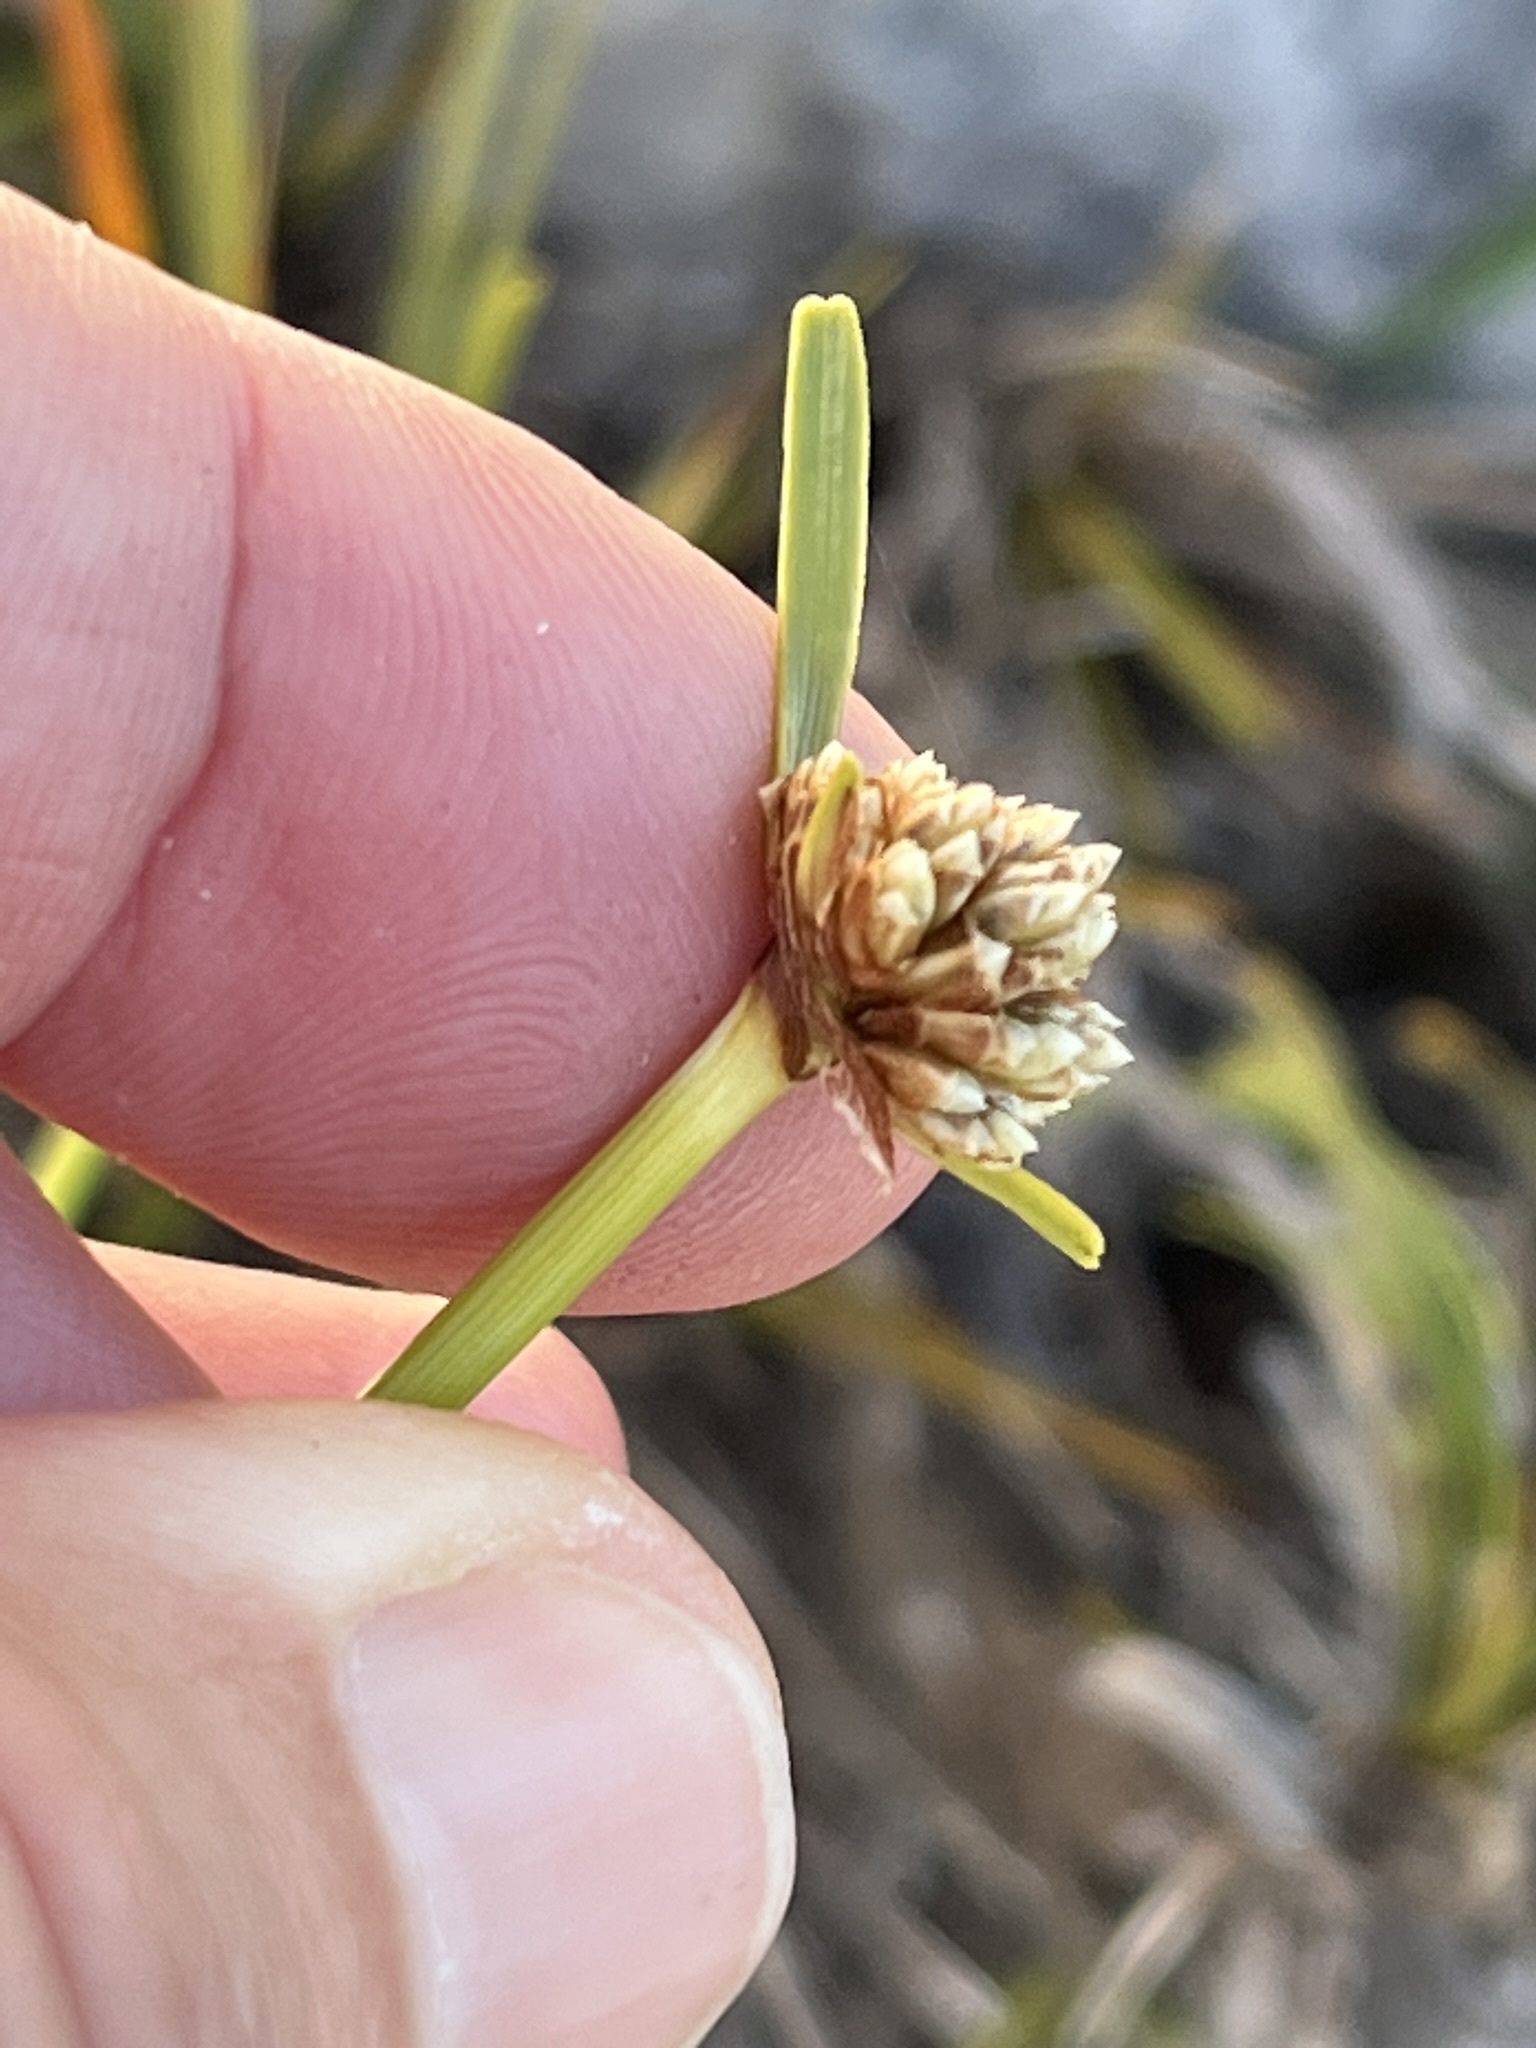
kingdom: Plantae
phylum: Tracheophyta
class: Liliopsida
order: Poales
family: Cyperaceae
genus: Ficinia
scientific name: Ficinia praemorsa
